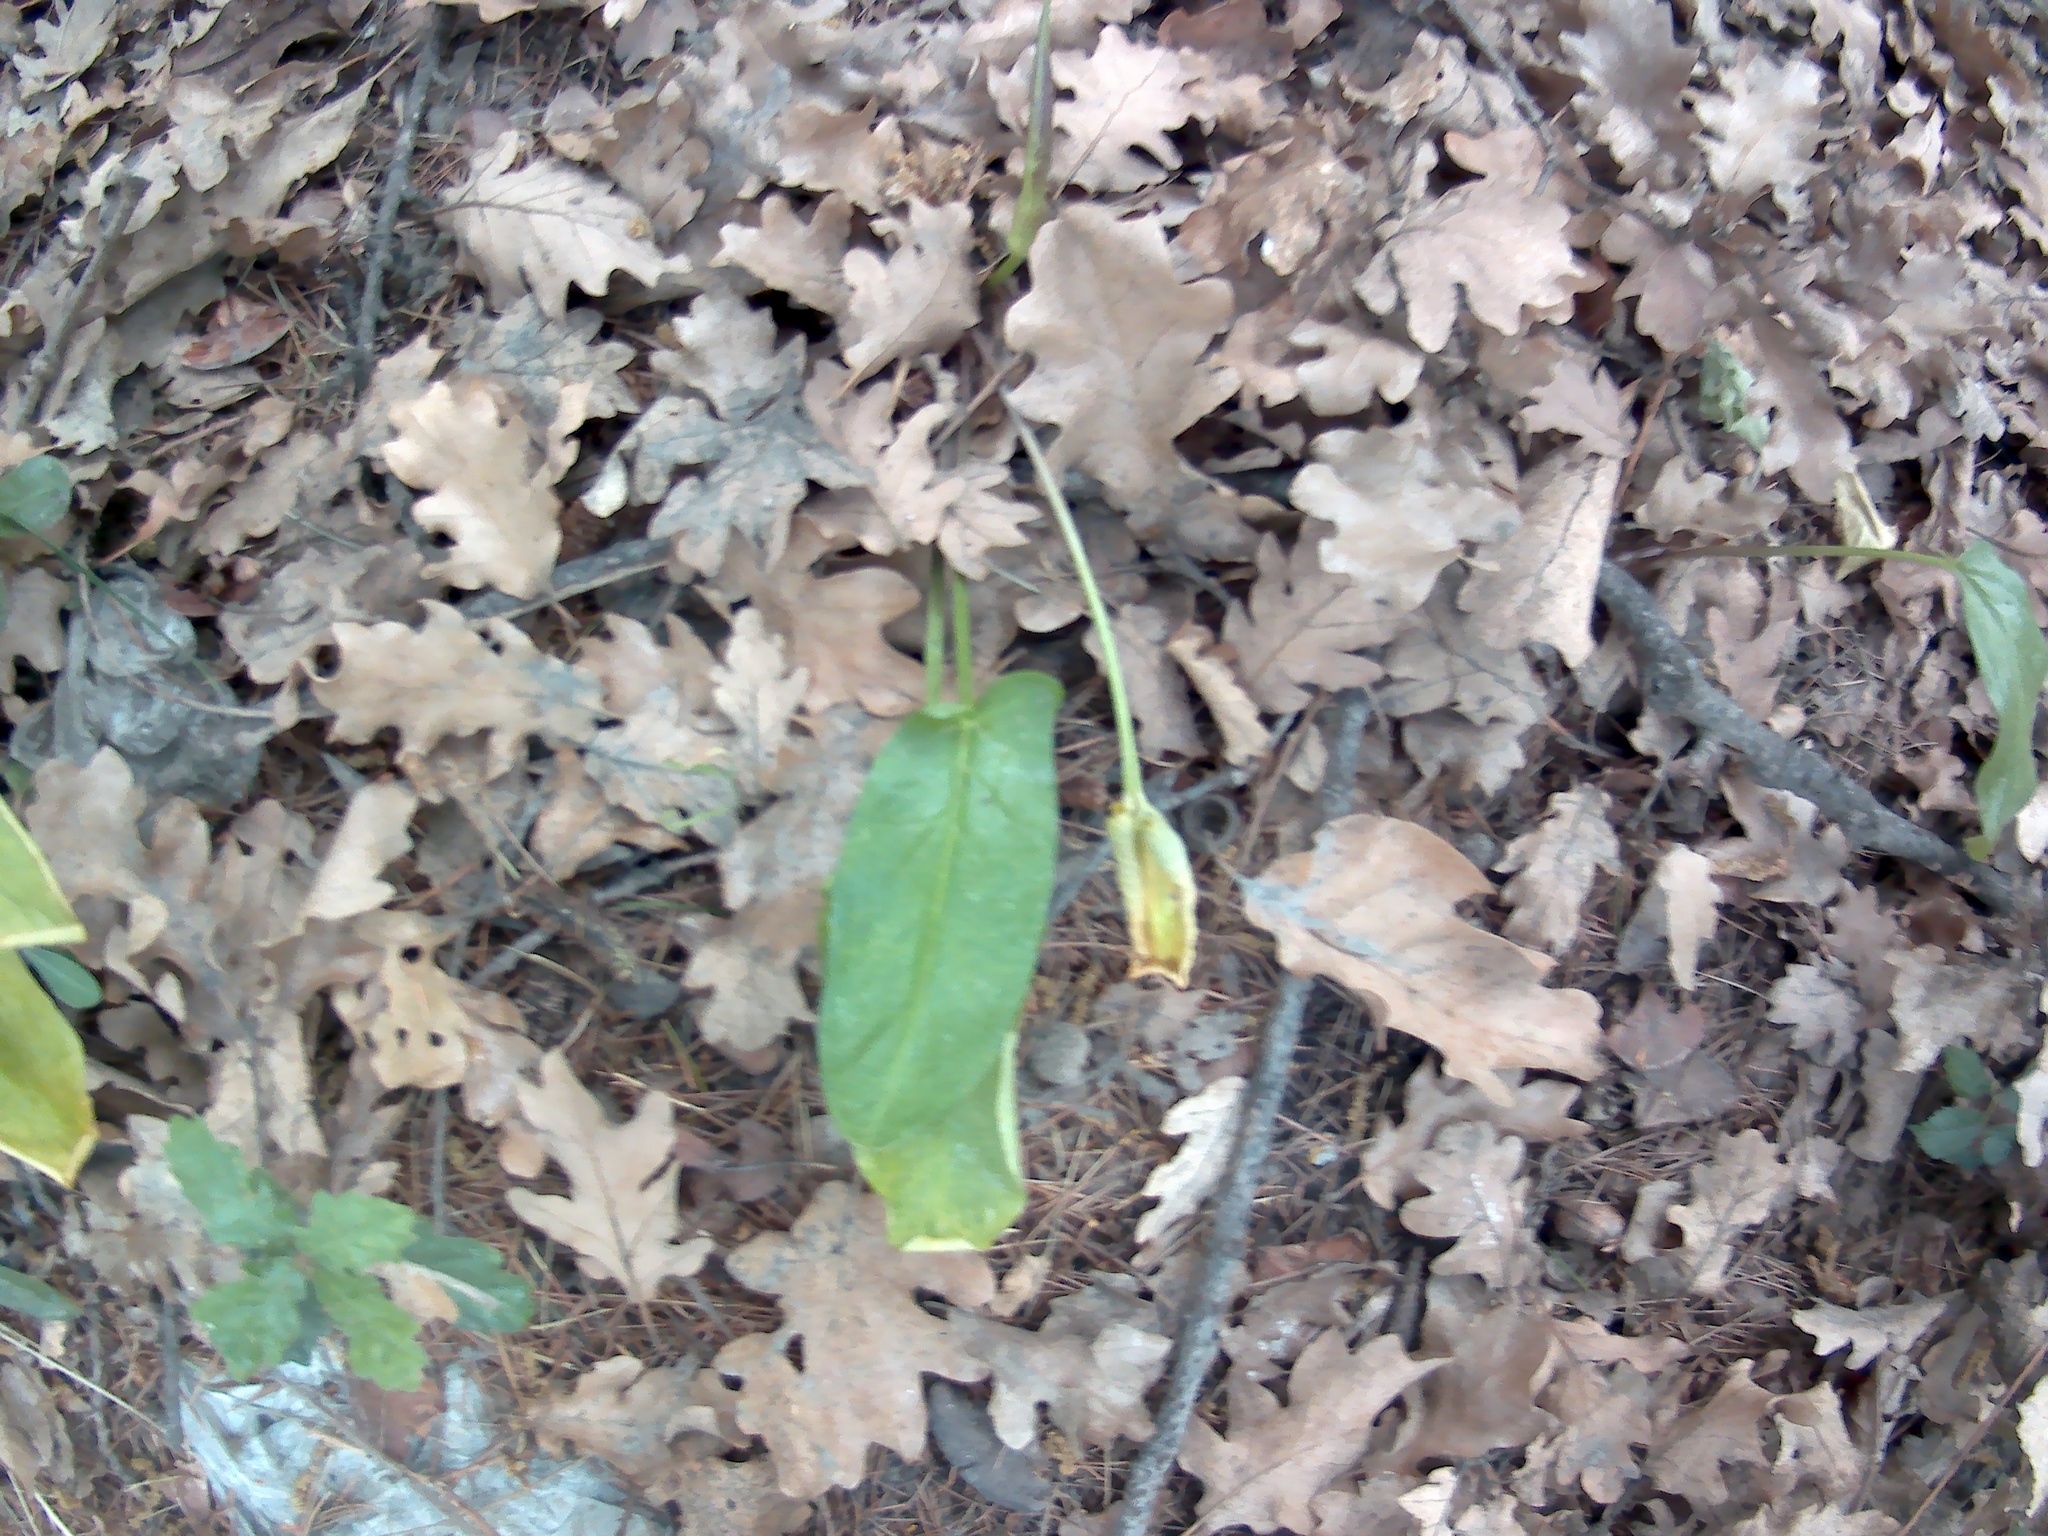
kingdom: Plantae
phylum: Tracheophyta
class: Liliopsida
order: Alismatales
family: Araceae
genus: Arum
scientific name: Arum orientale
